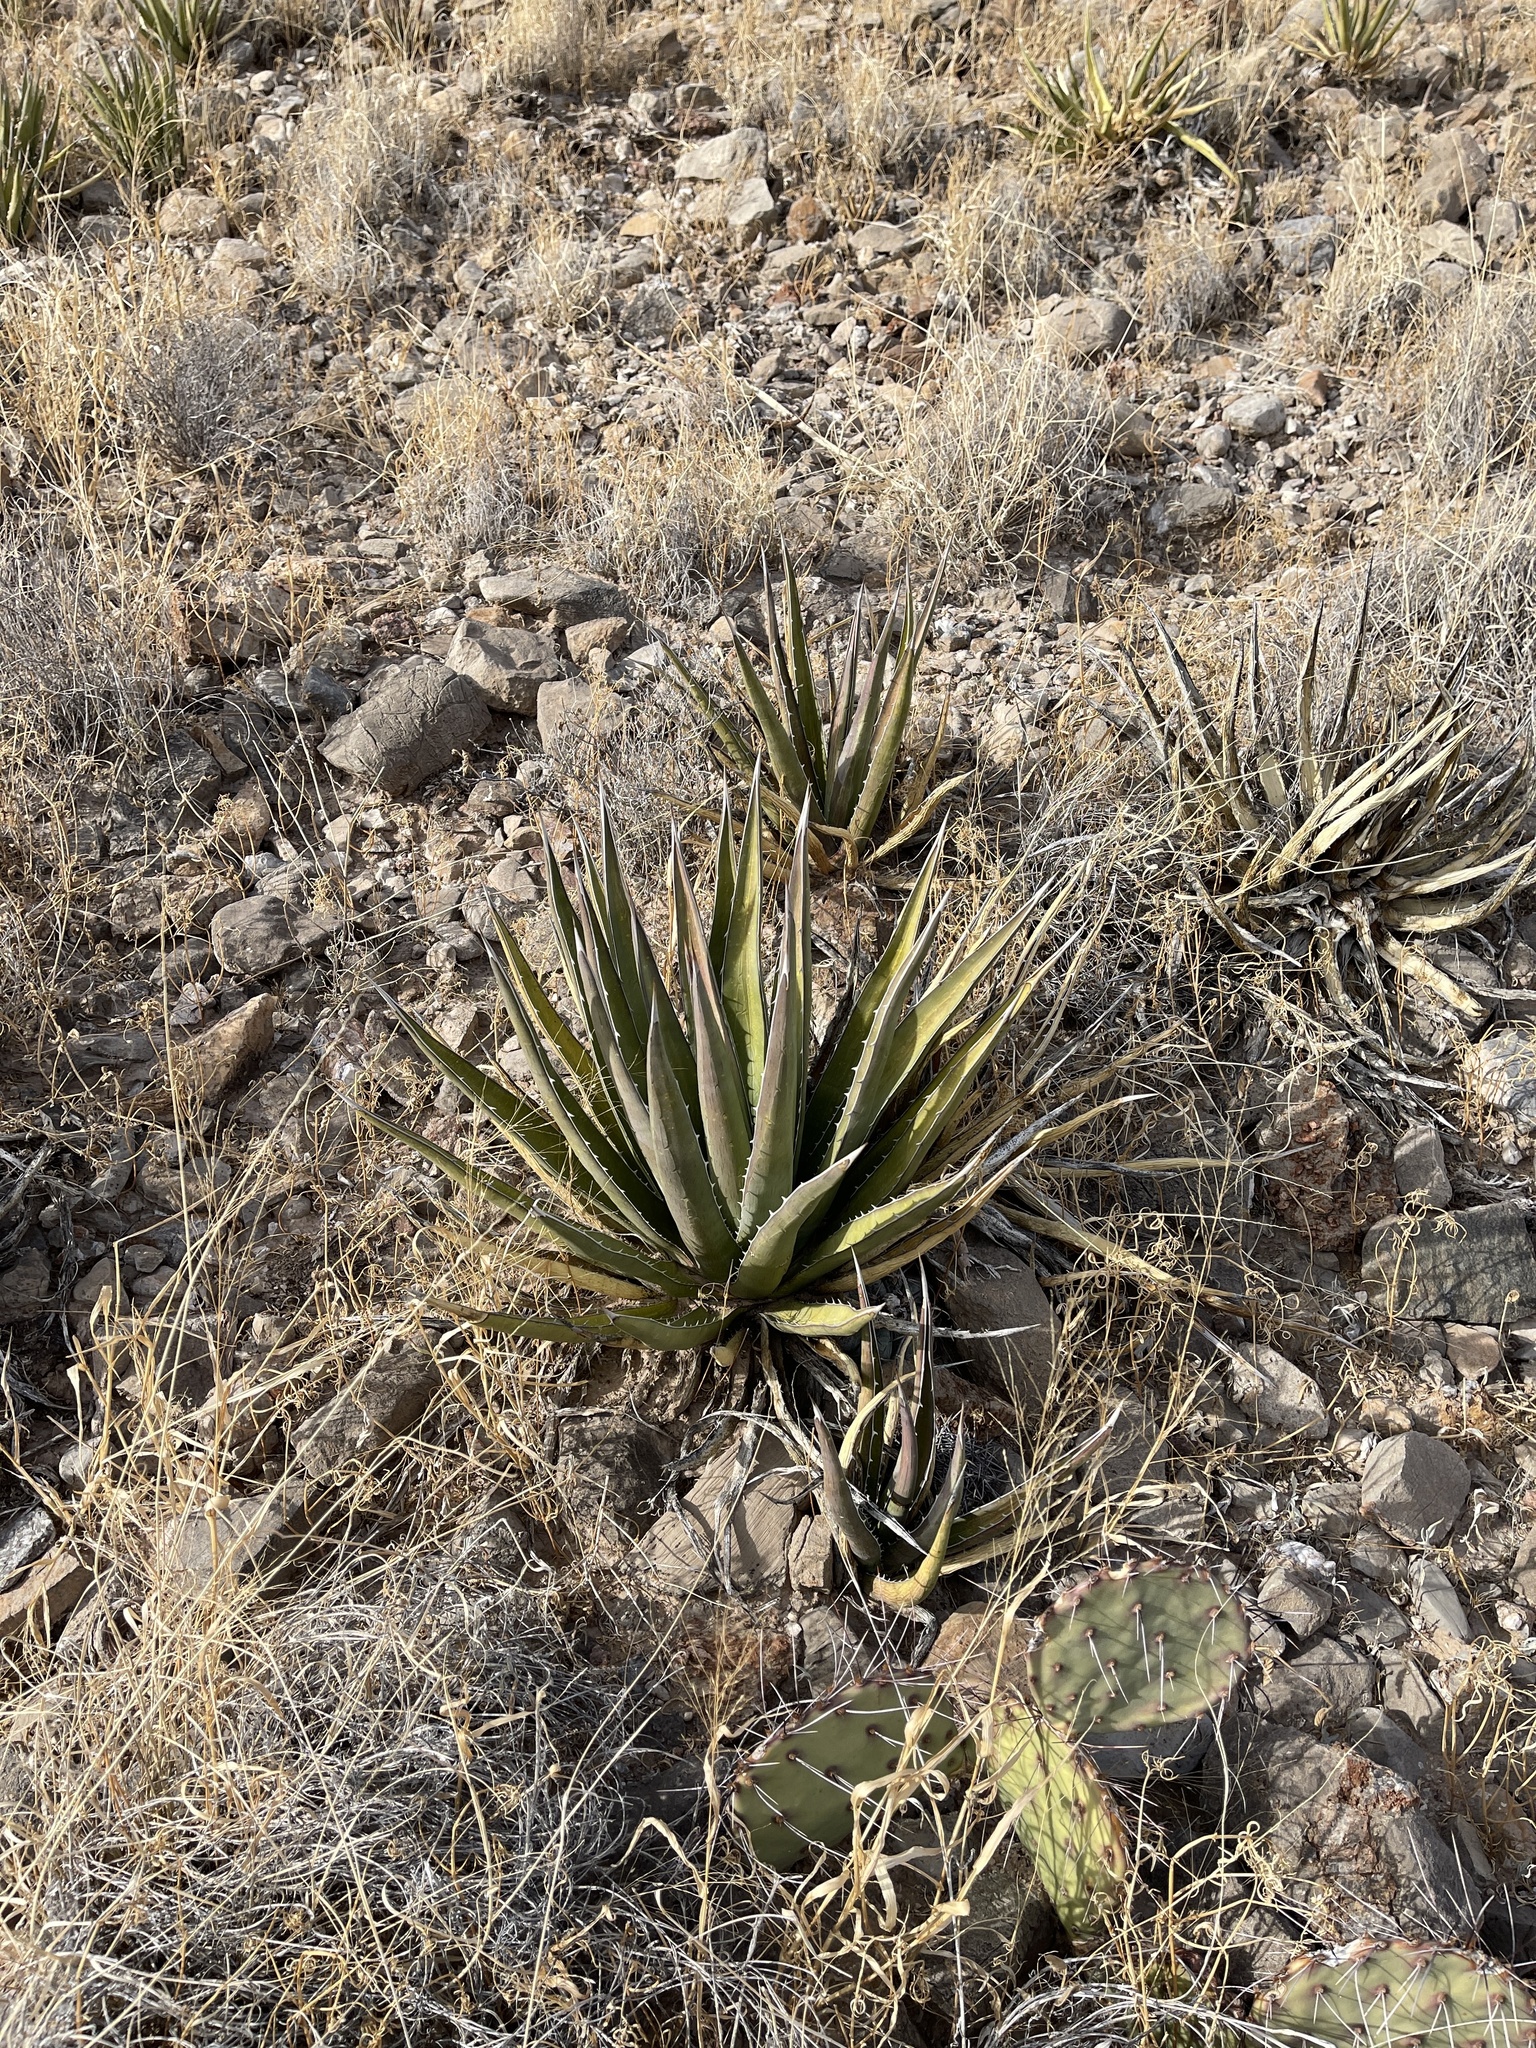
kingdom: Plantae
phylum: Tracheophyta
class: Liliopsida
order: Asparagales
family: Asparagaceae
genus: Agave
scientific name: Agave lechuguilla
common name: Lecheguilla agave
